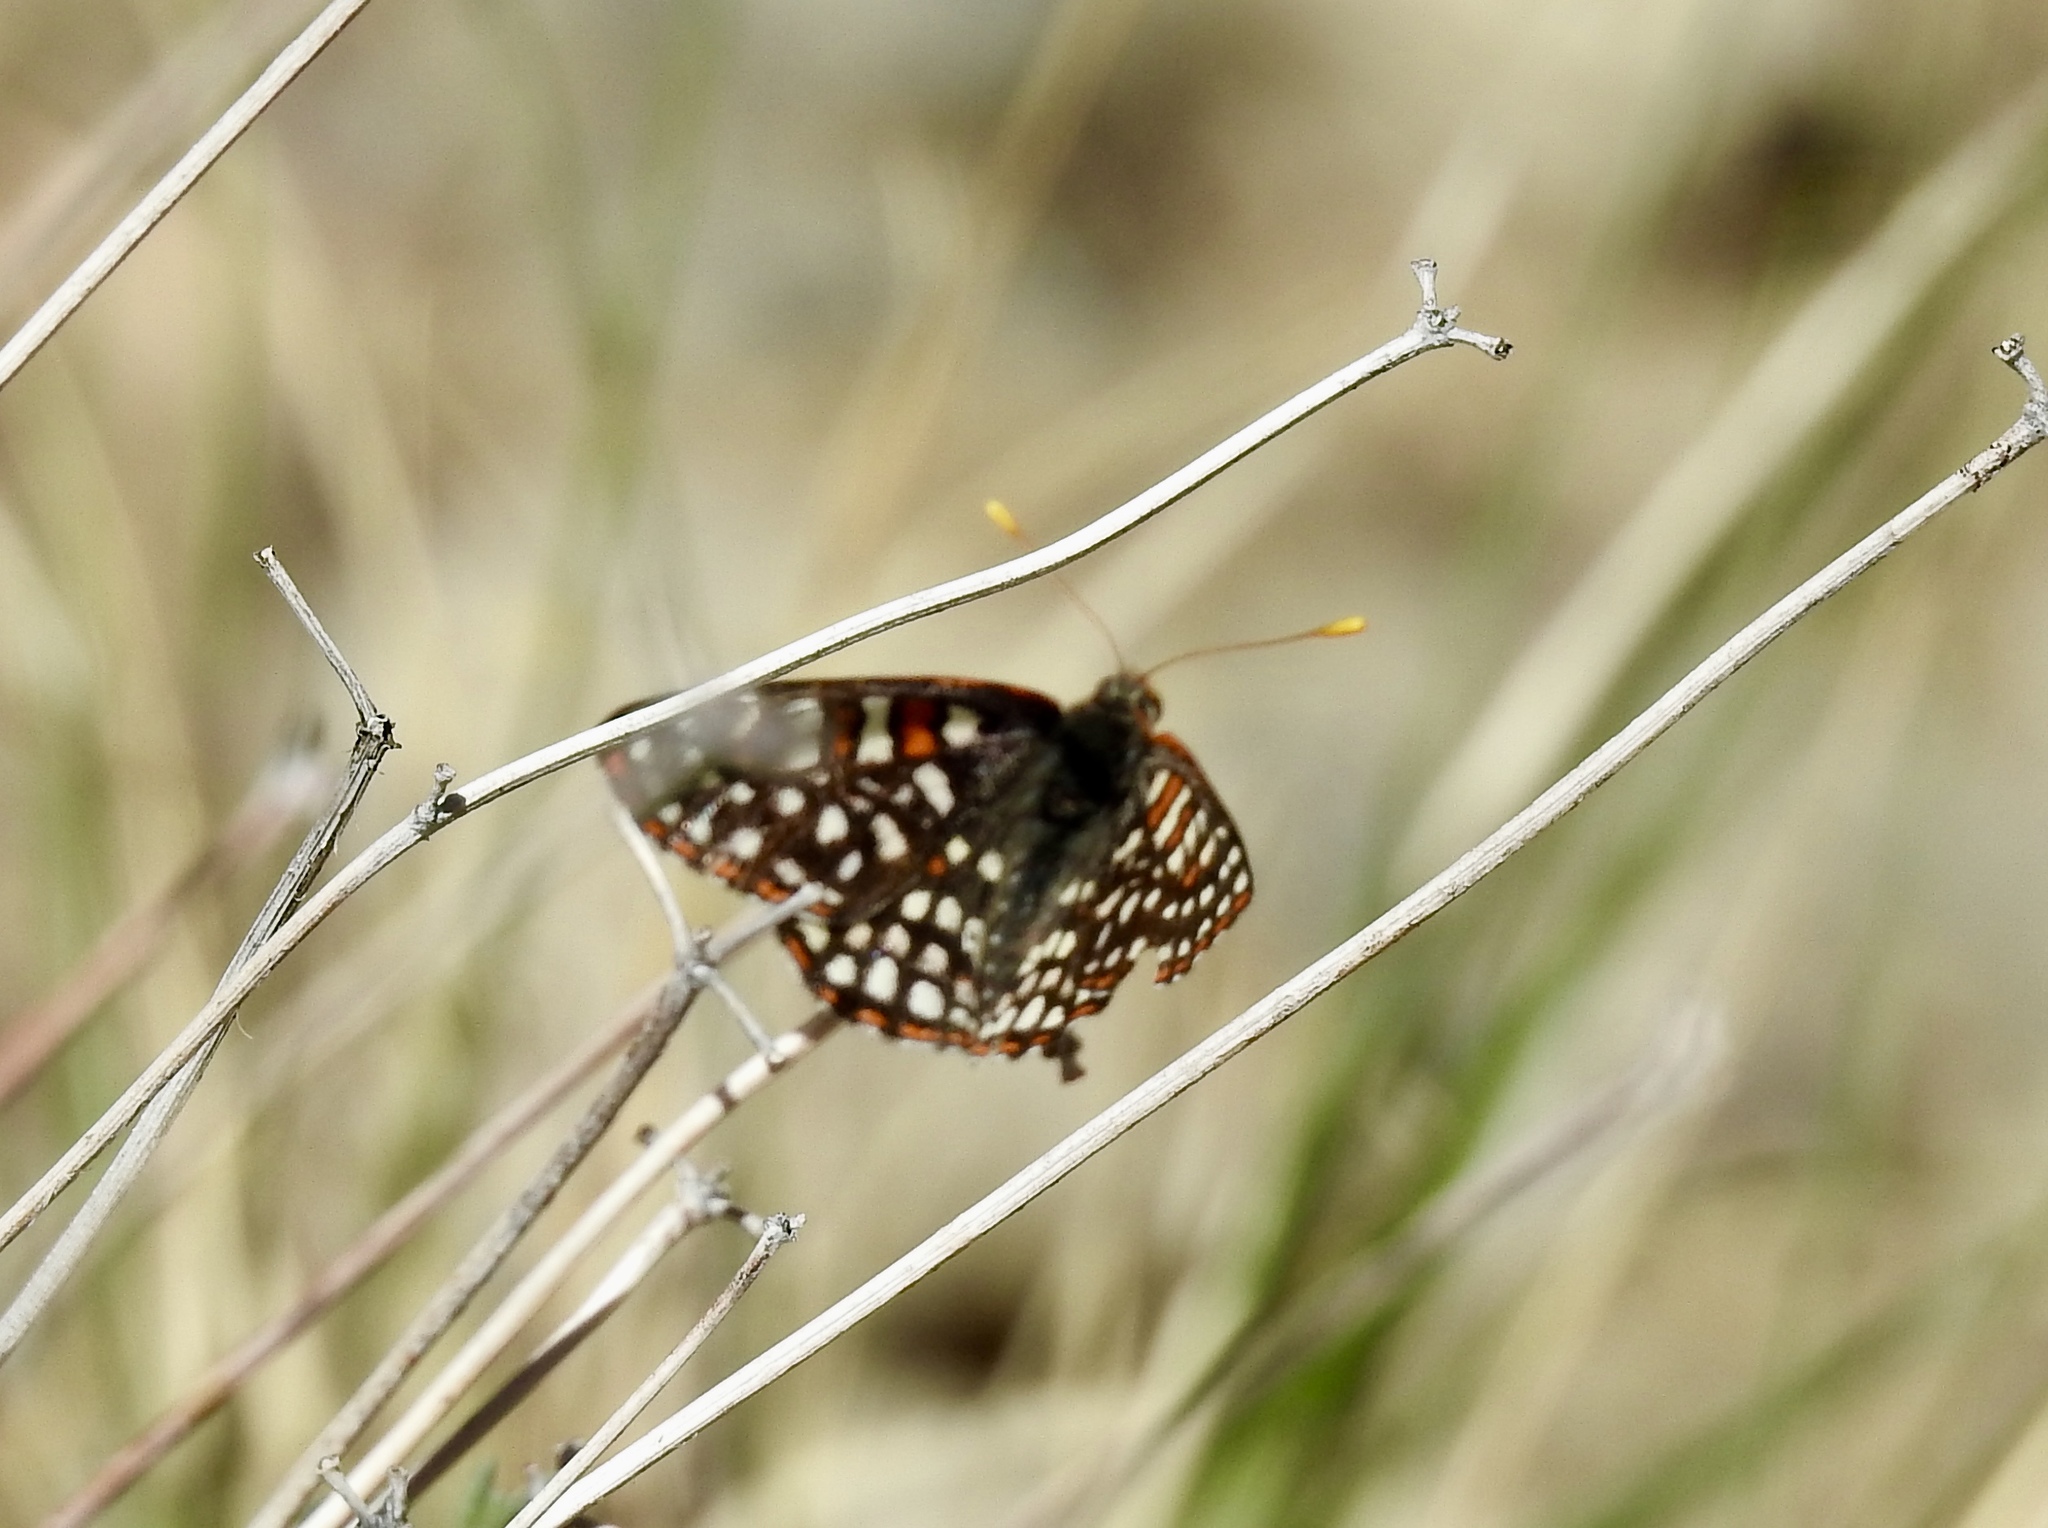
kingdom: Animalia
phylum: Arthropoda
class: Insecta
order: Lepidoptera
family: Nymphalidae
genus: Occidryas
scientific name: Occidryas chalcedona
